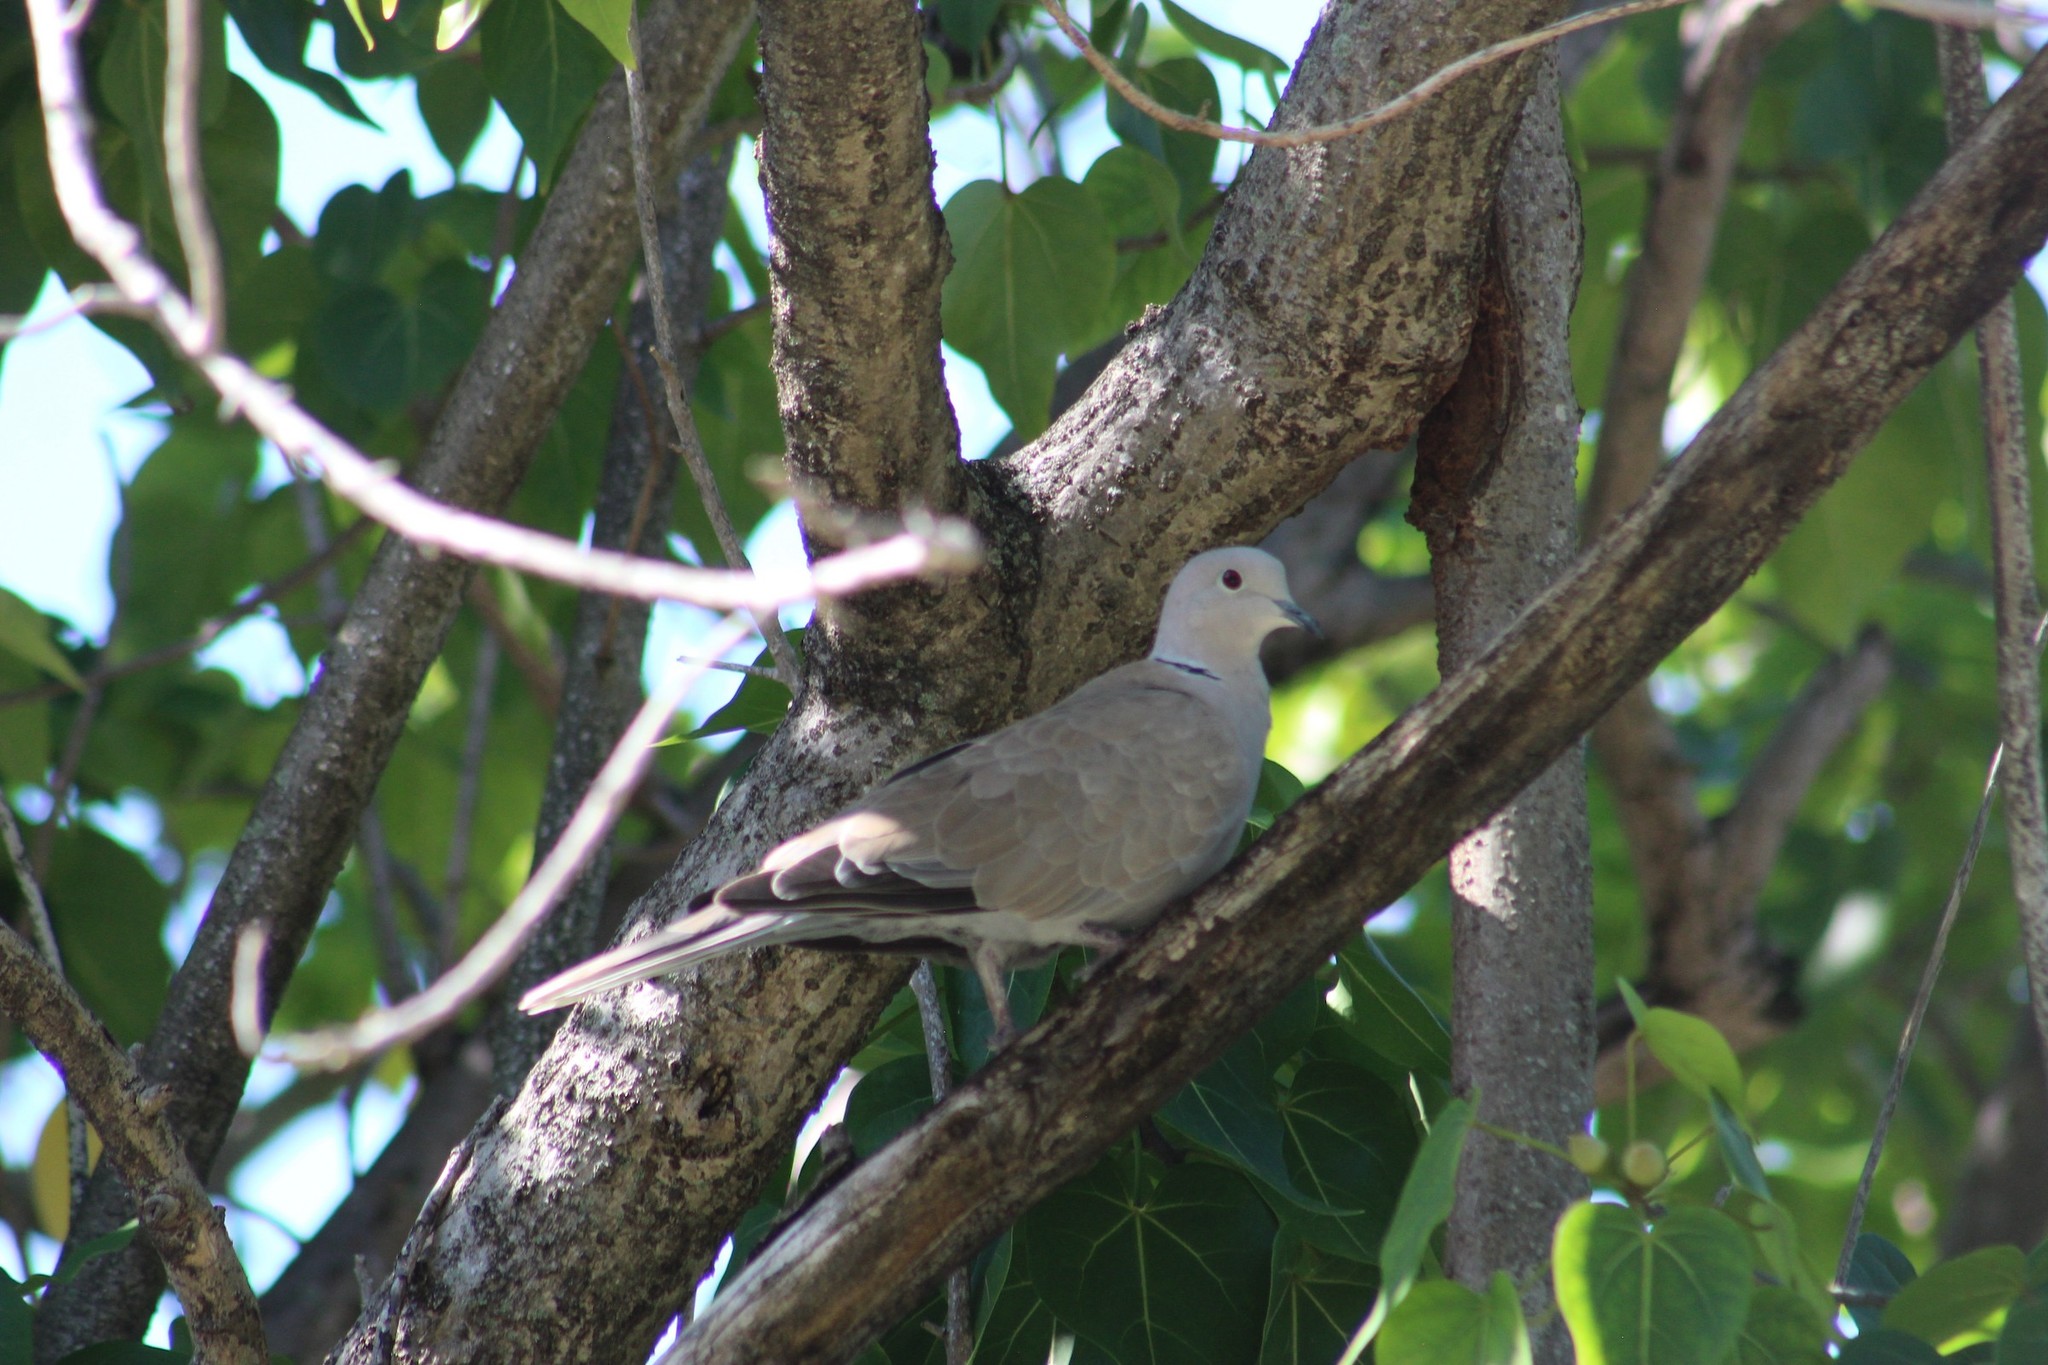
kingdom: Animalia
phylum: Chordata
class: Aves
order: Columbiformes
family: Columbidae
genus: Streptopelia
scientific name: Streptopelia decaocto
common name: Eurasian collared dove
